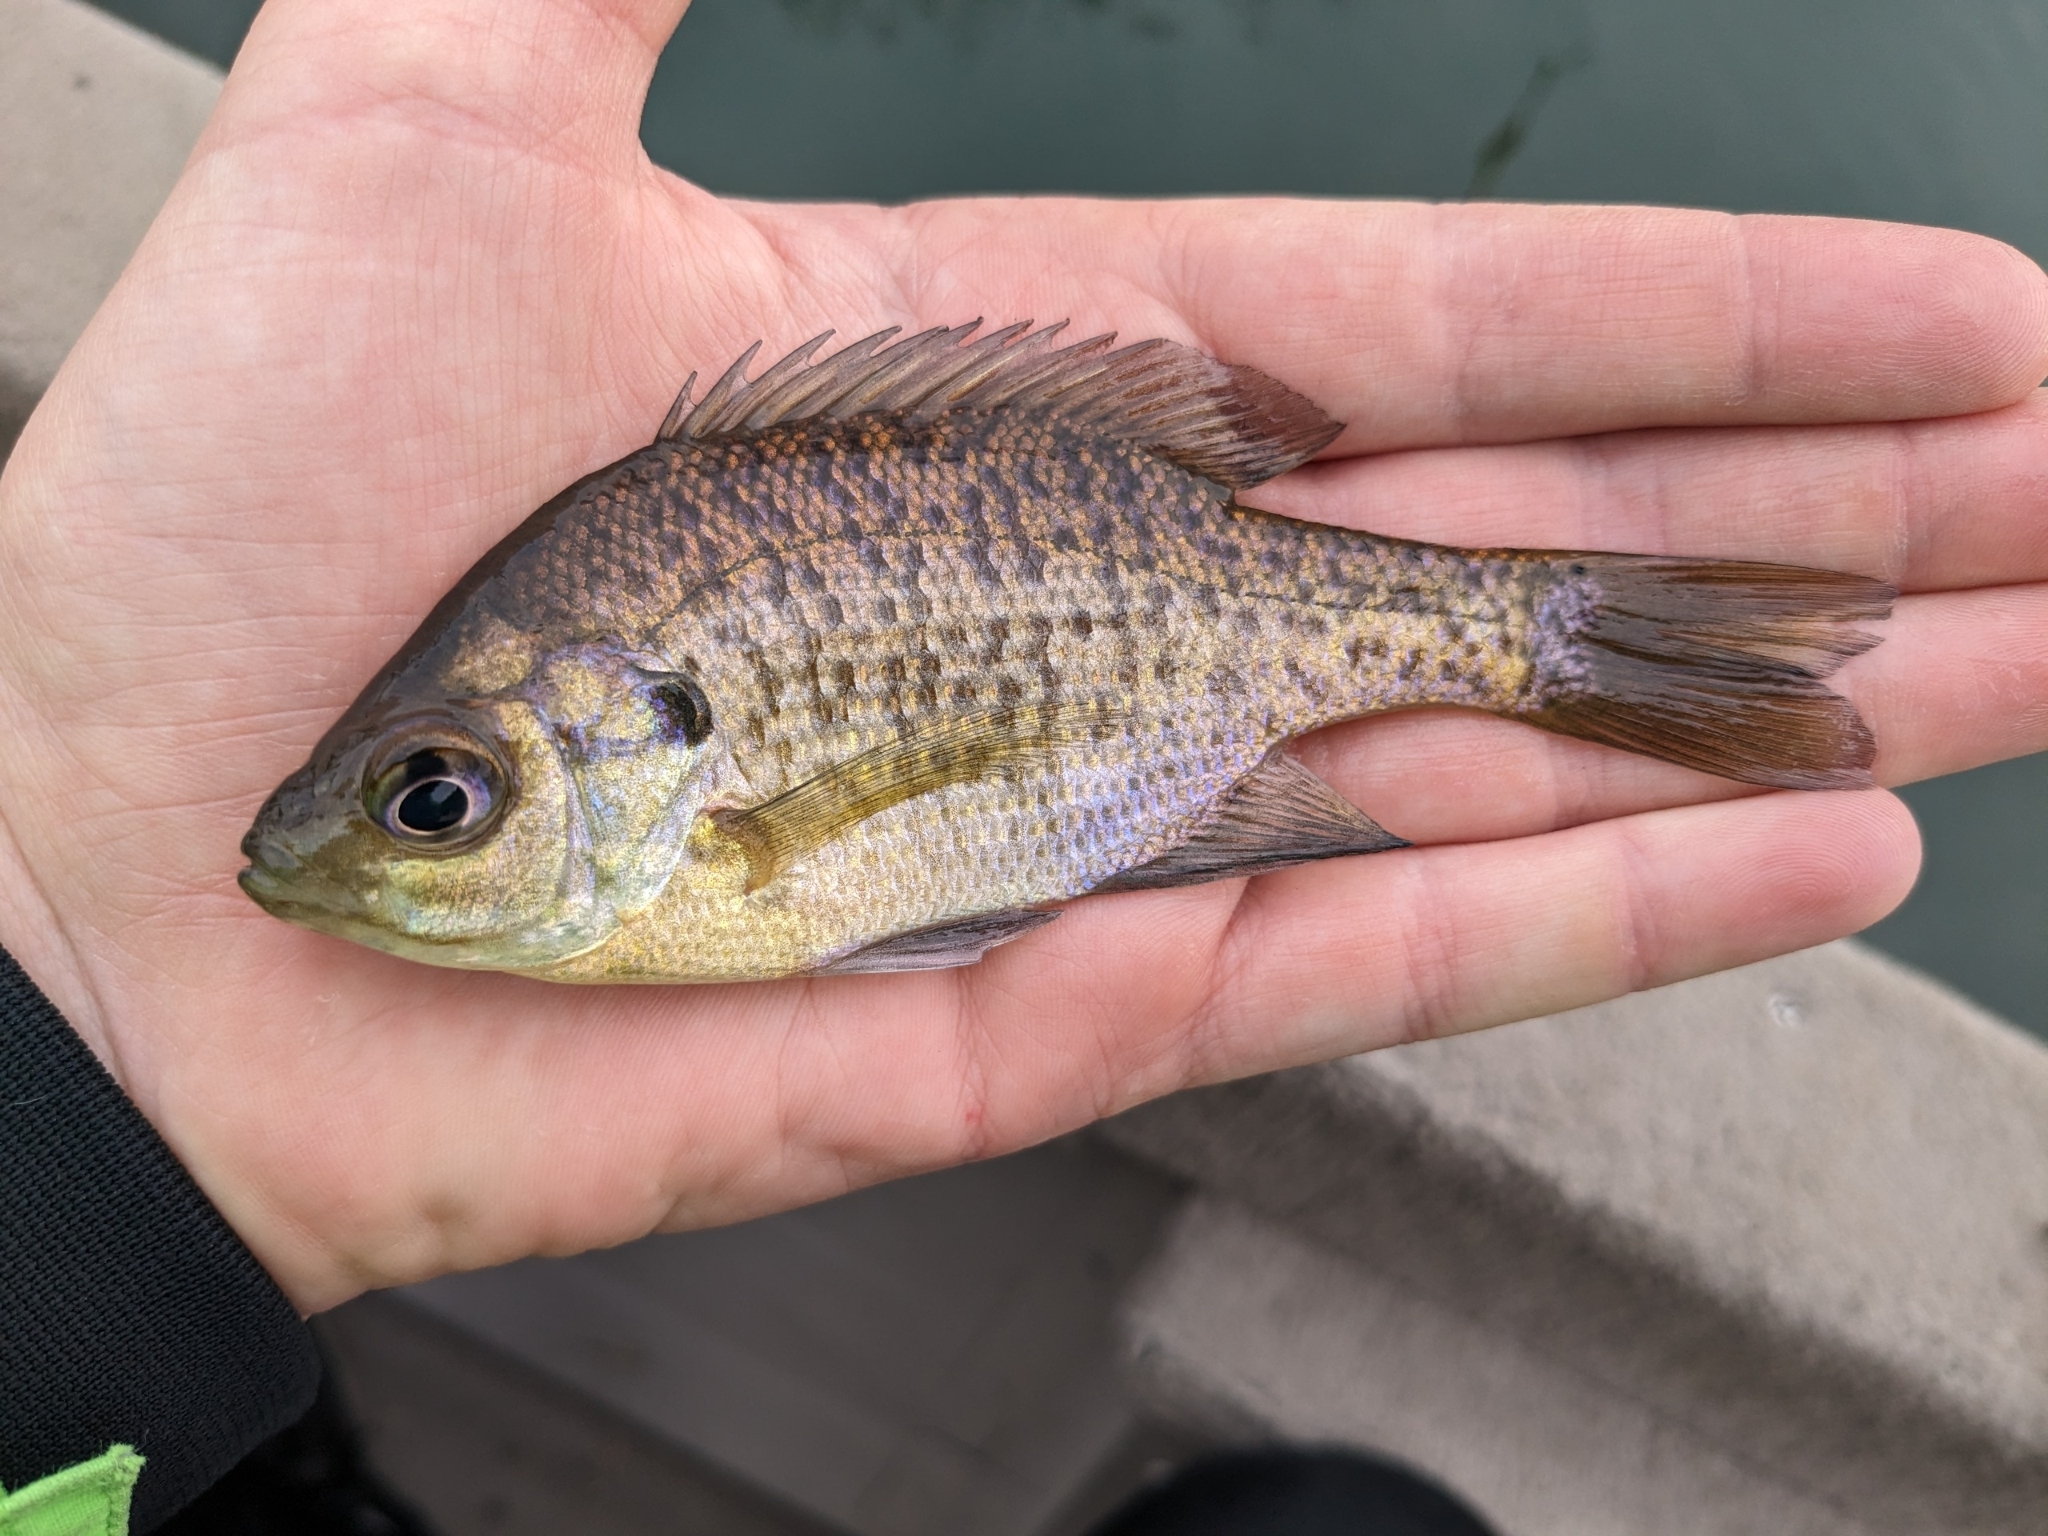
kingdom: Animalia
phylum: Chordata
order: Perciformes
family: Centrarchidae
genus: Lepomis
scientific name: Lepomis macrochirus
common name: Bluegill
